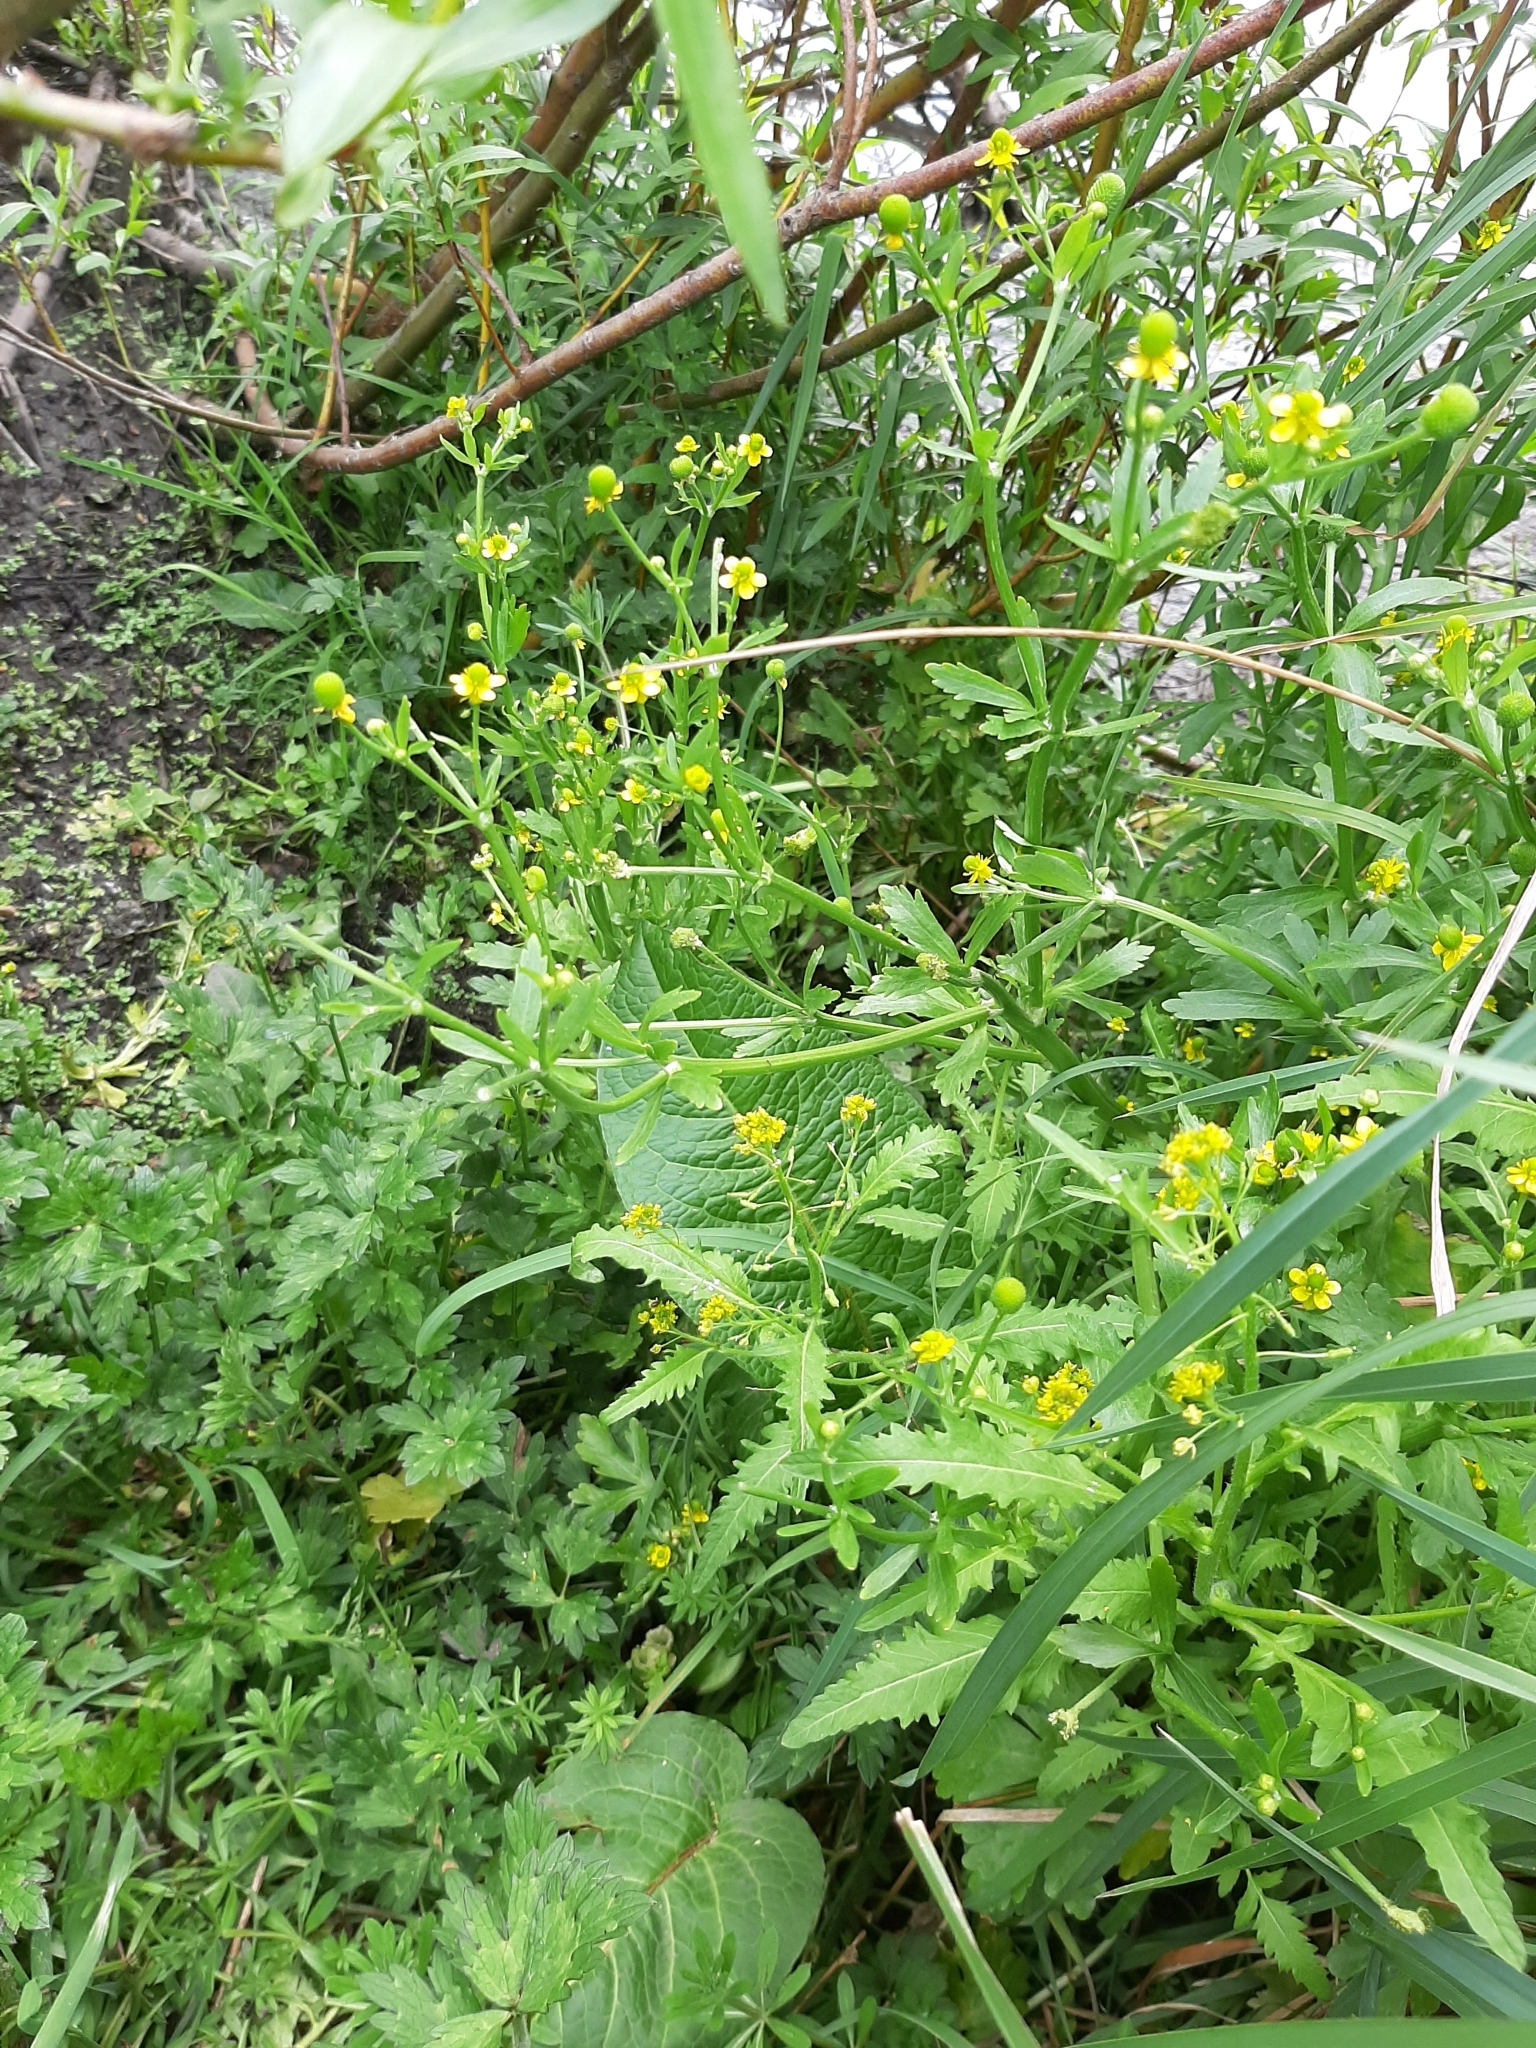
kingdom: Plantae
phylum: Tracheophyta
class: Magnoliopsida
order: Brassicales
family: Brassicaceae
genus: Rorippa
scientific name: Rorippa palustris
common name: Marsh yellow-cress
